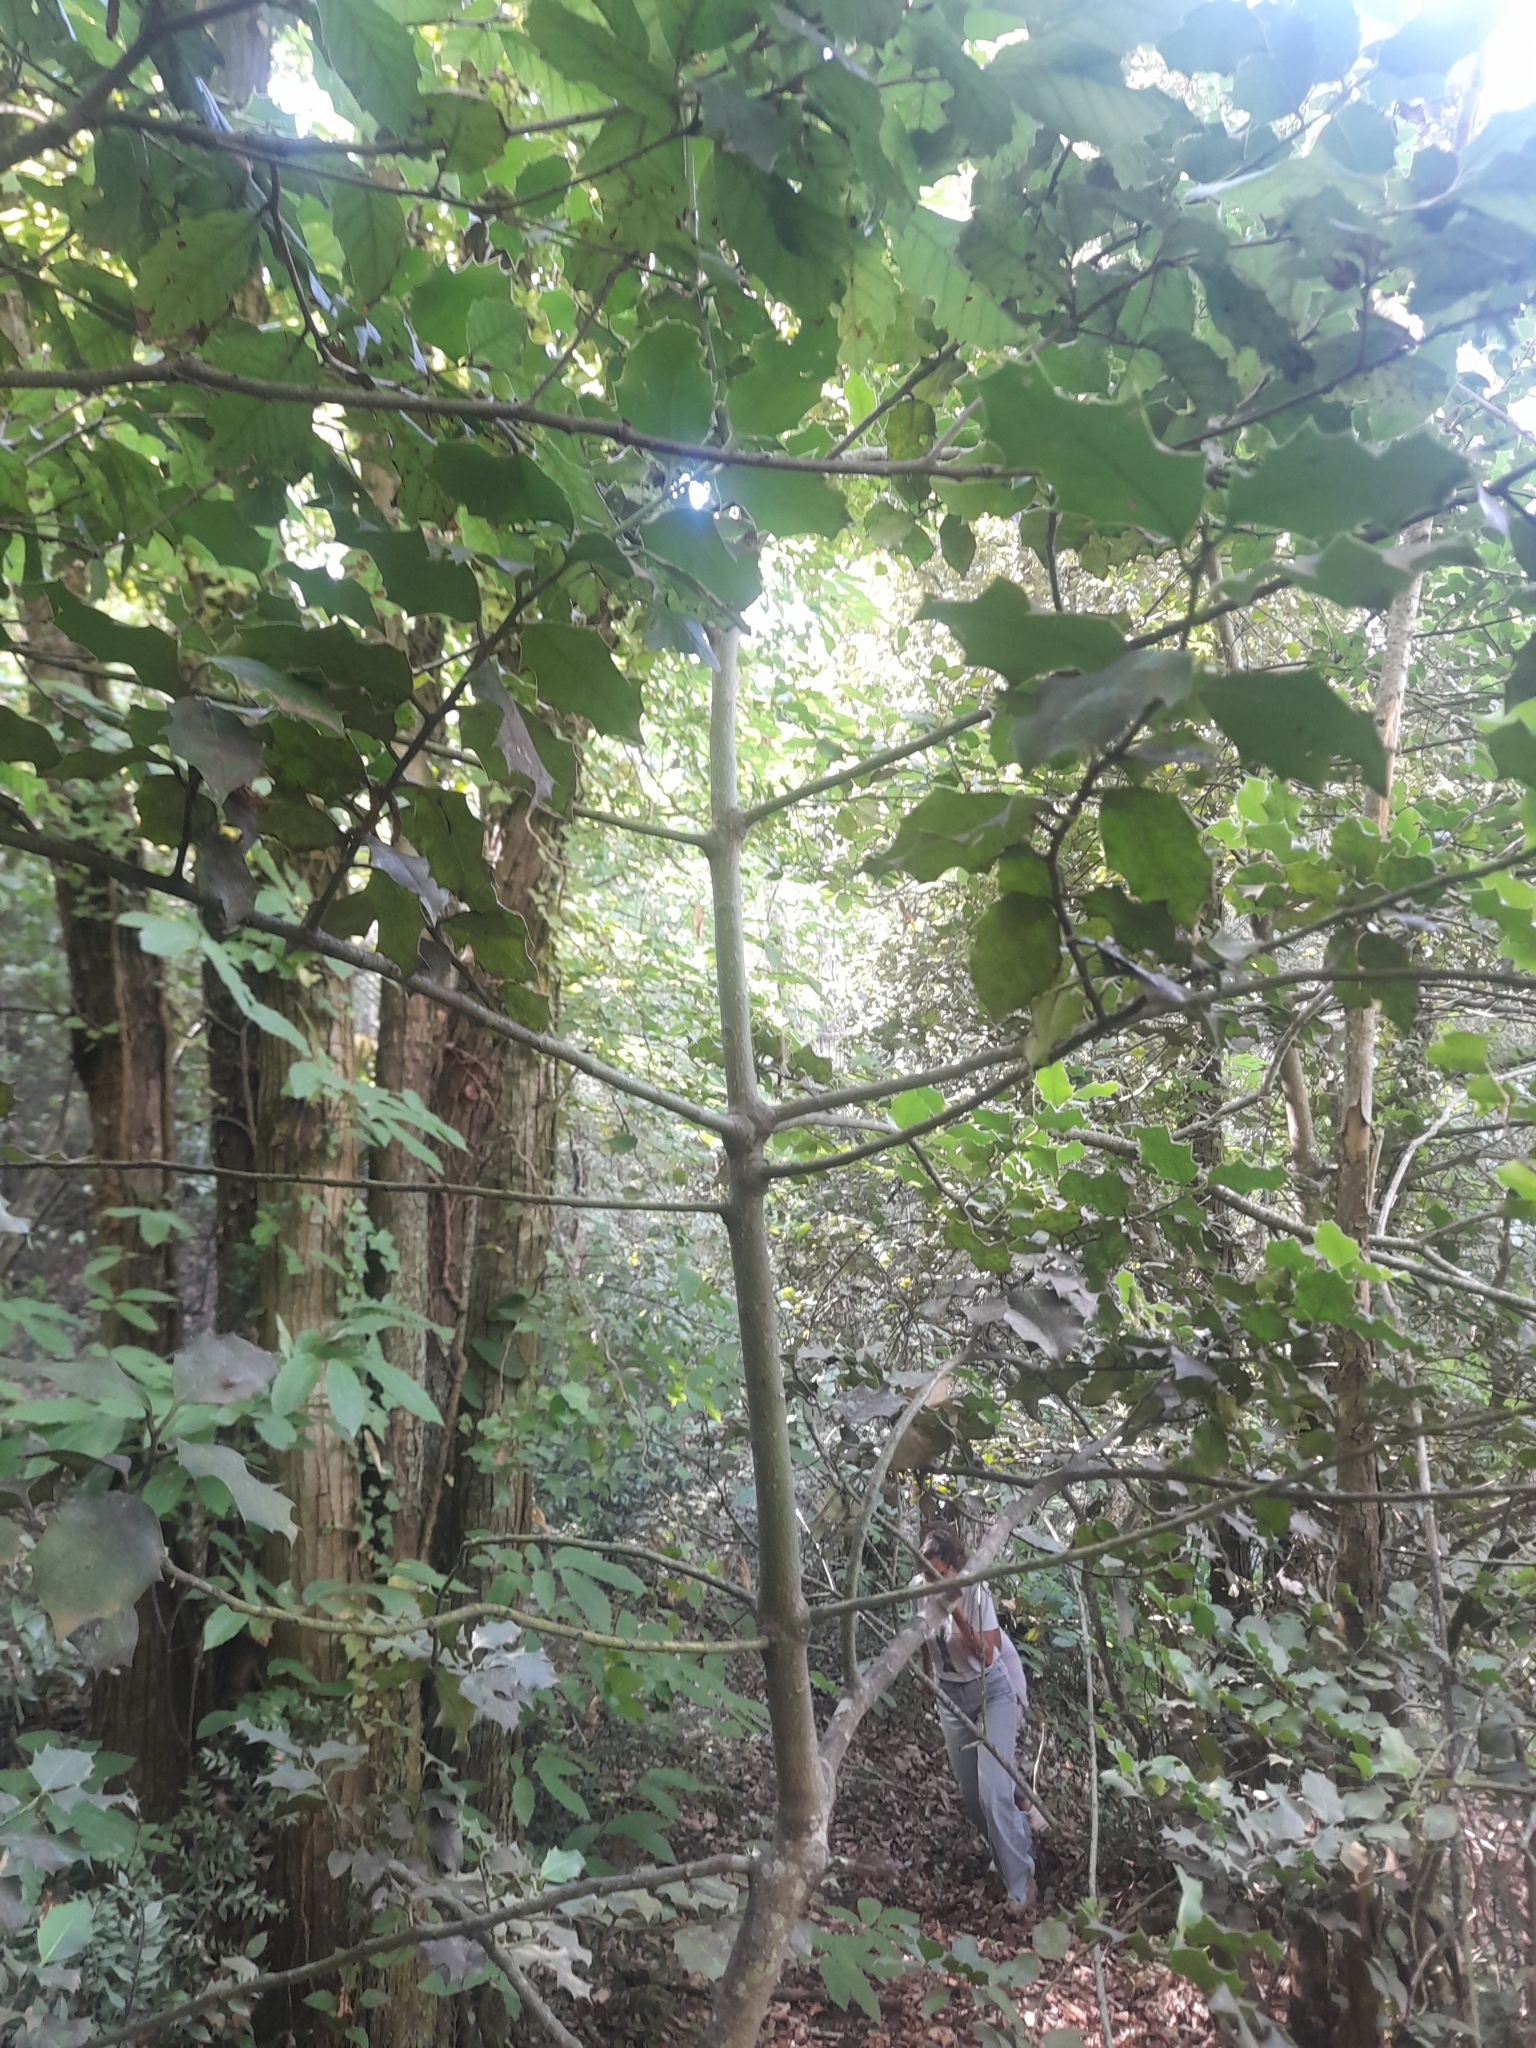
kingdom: Plantae
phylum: Tracheophyta
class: Magnoliopsida
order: Aquifoliales
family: Aquifoliaceae
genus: Ilex
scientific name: Ilex aquifolium
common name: English holly
